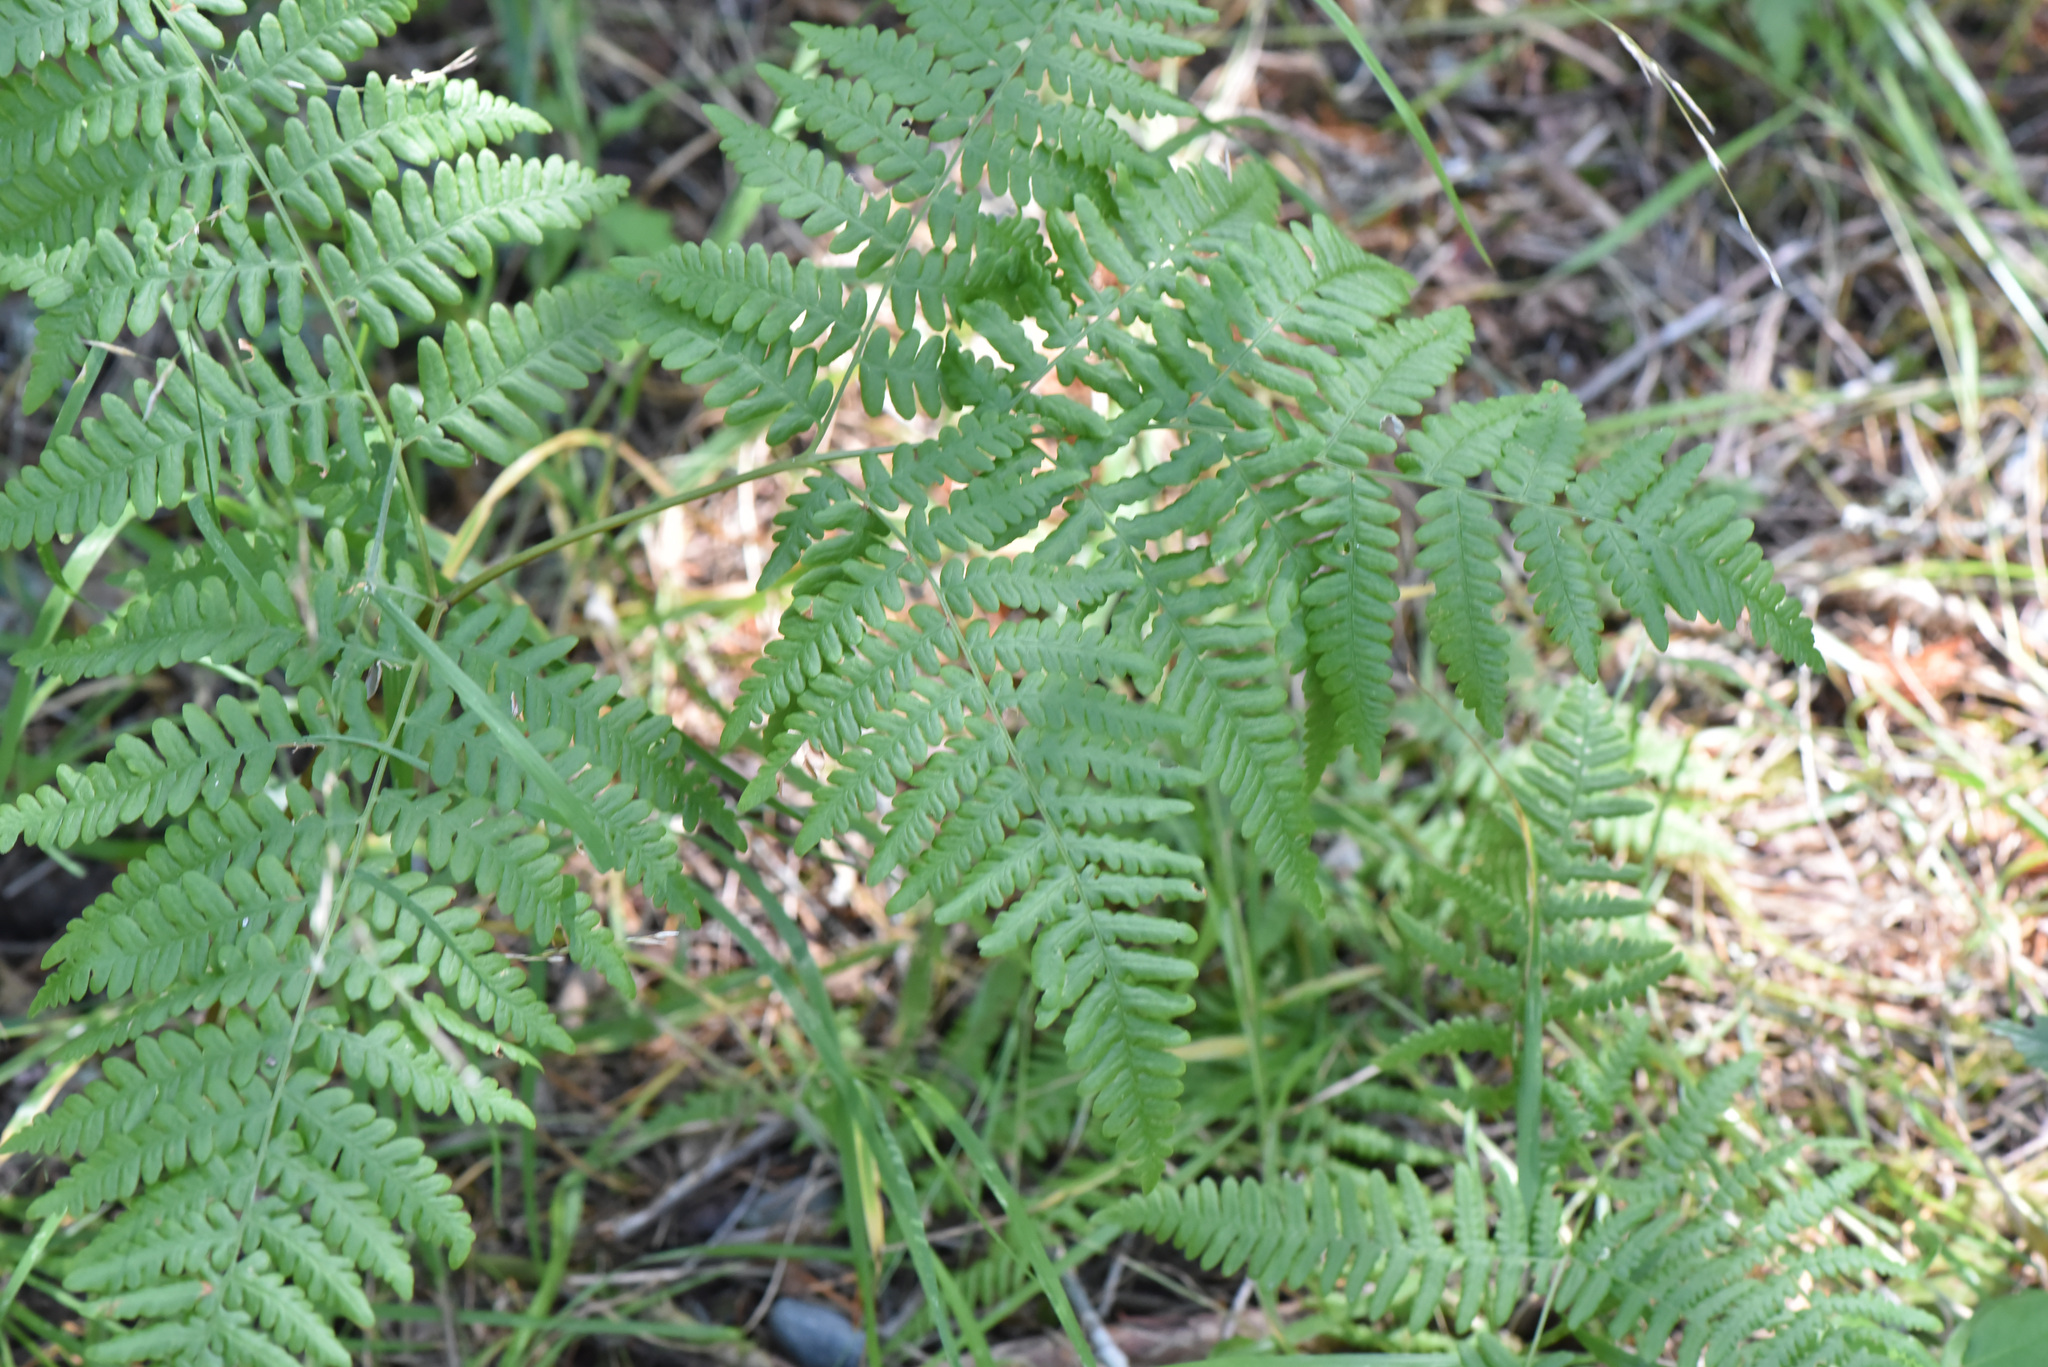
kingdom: Plantae
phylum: Tracheophyta
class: Polypodiopsida
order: Polypodiales
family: Dennstaedtiaceae
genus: Pteridium
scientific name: Pteridium aquilinum
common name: Bracken
